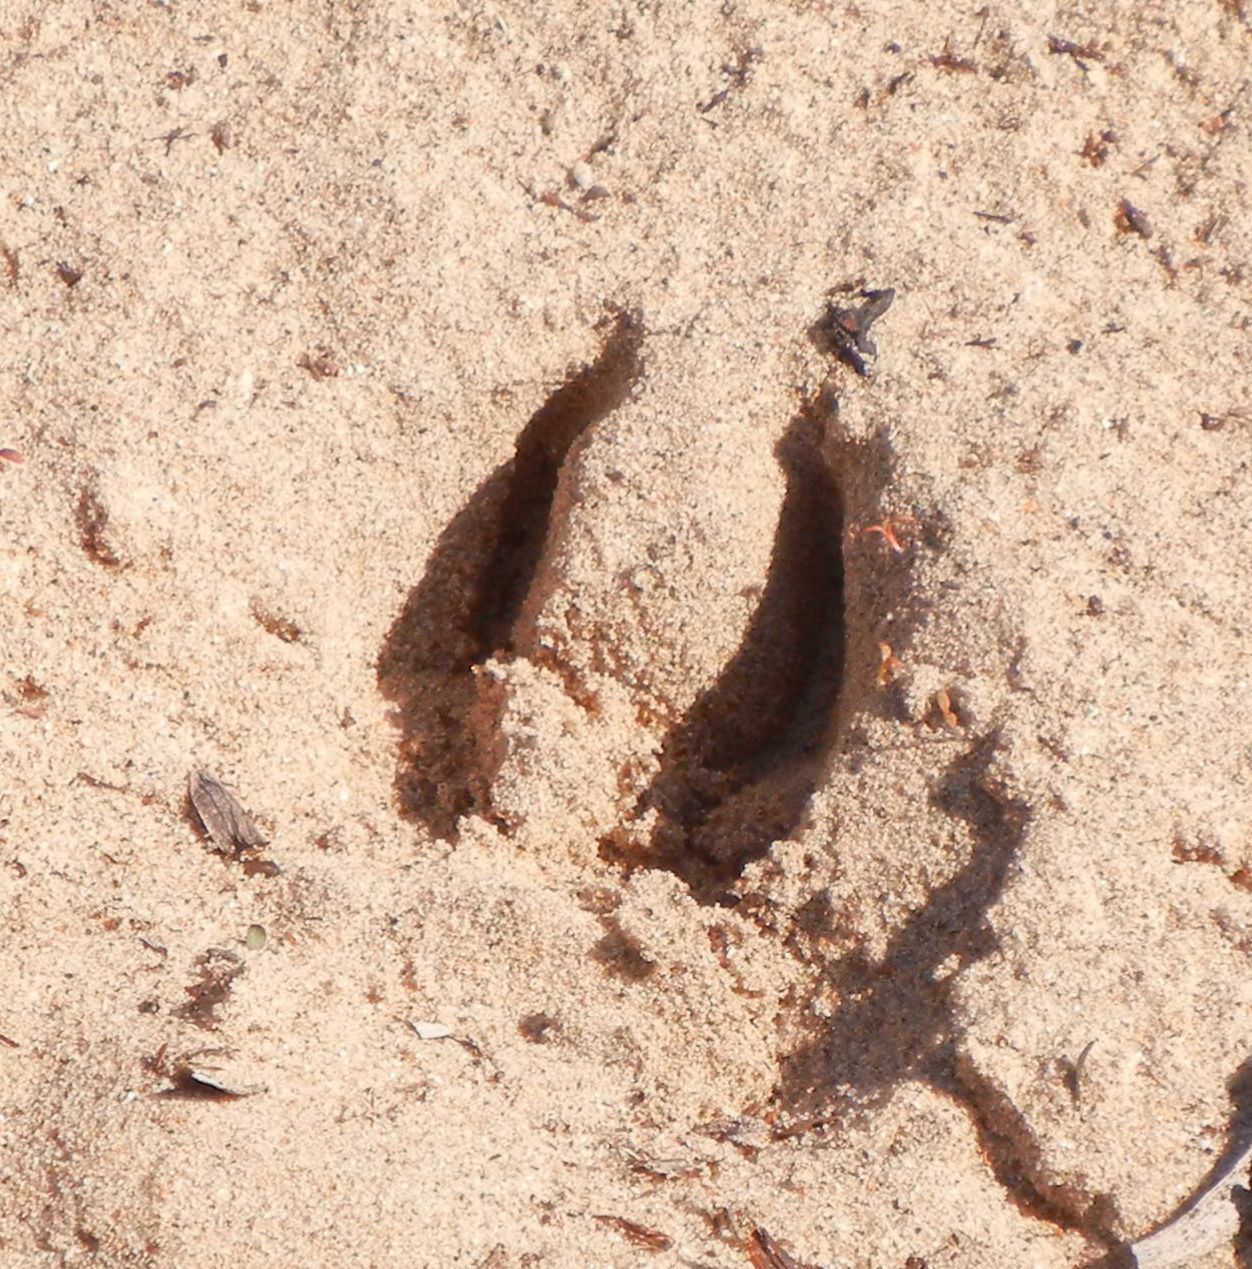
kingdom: Animalia
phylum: Chordata
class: Mammalia
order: Artiodactyla
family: Suidae
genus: Sus
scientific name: Sus scrofa
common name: Wild boar
